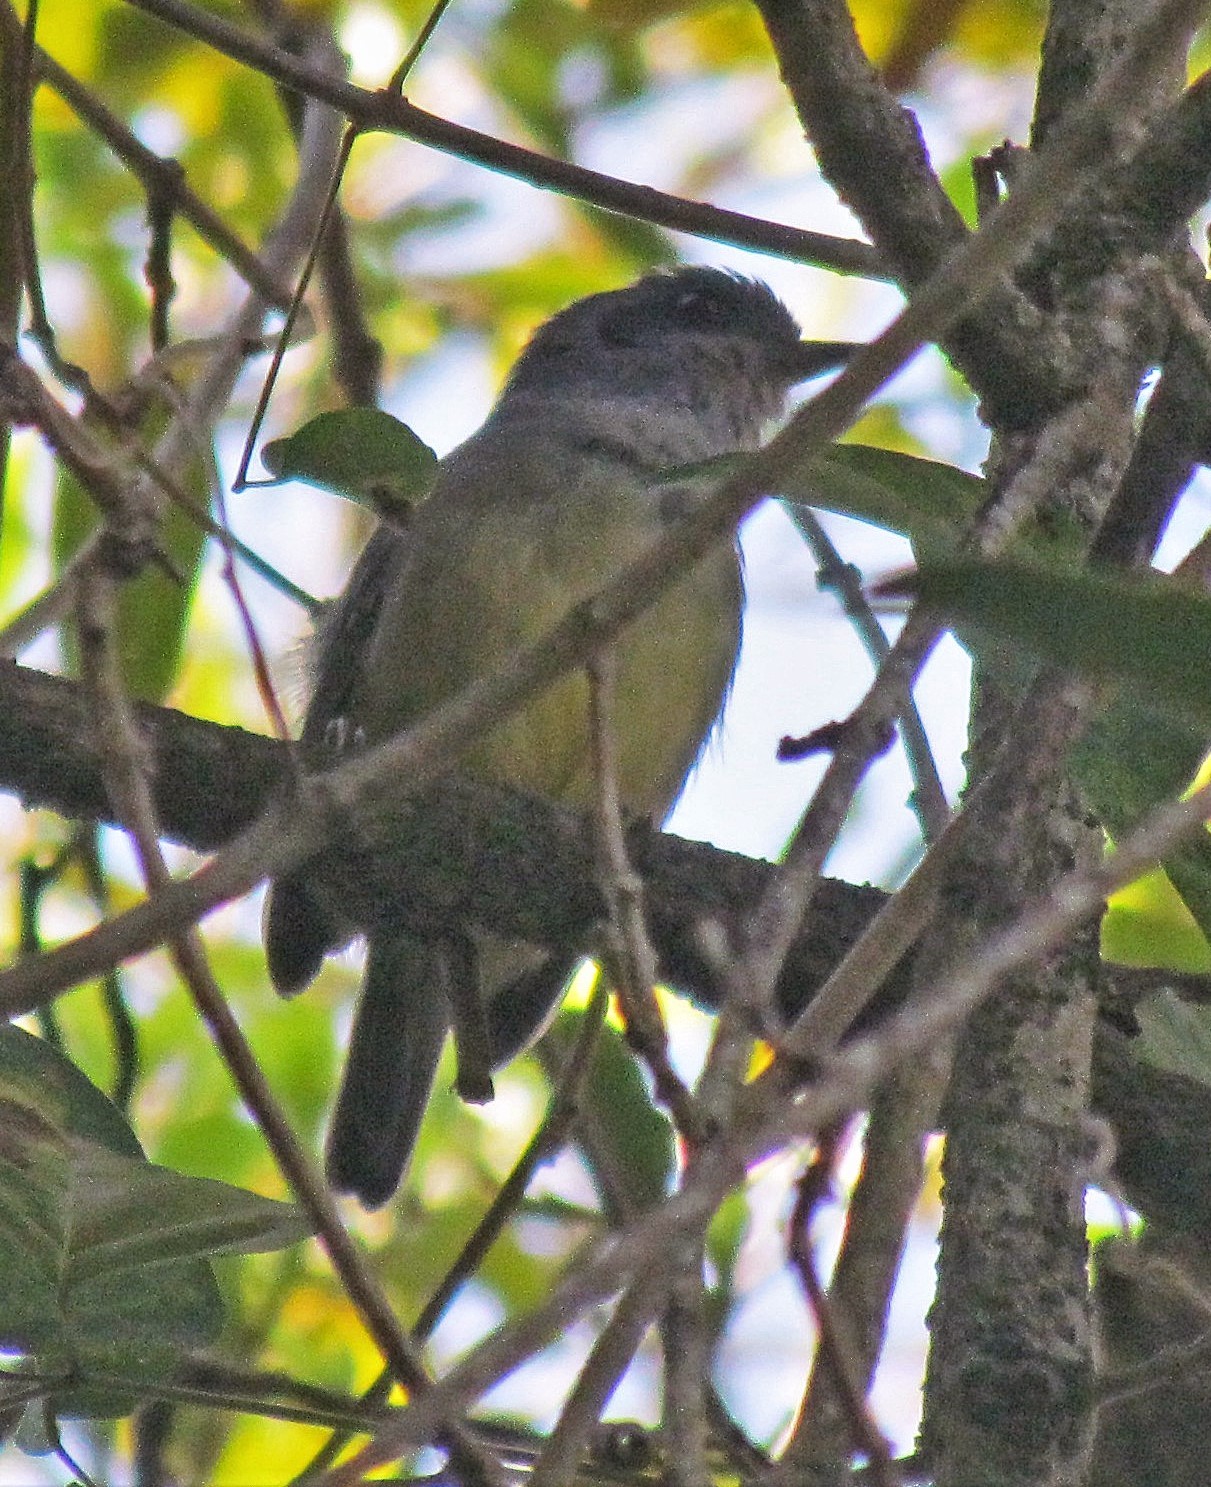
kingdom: Animalia
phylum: Chordata
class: Aves
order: Passeriformes
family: Thamnophilidae
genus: Dysithamnus
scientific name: Dysithamnus mentalis
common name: Plain antvireo
